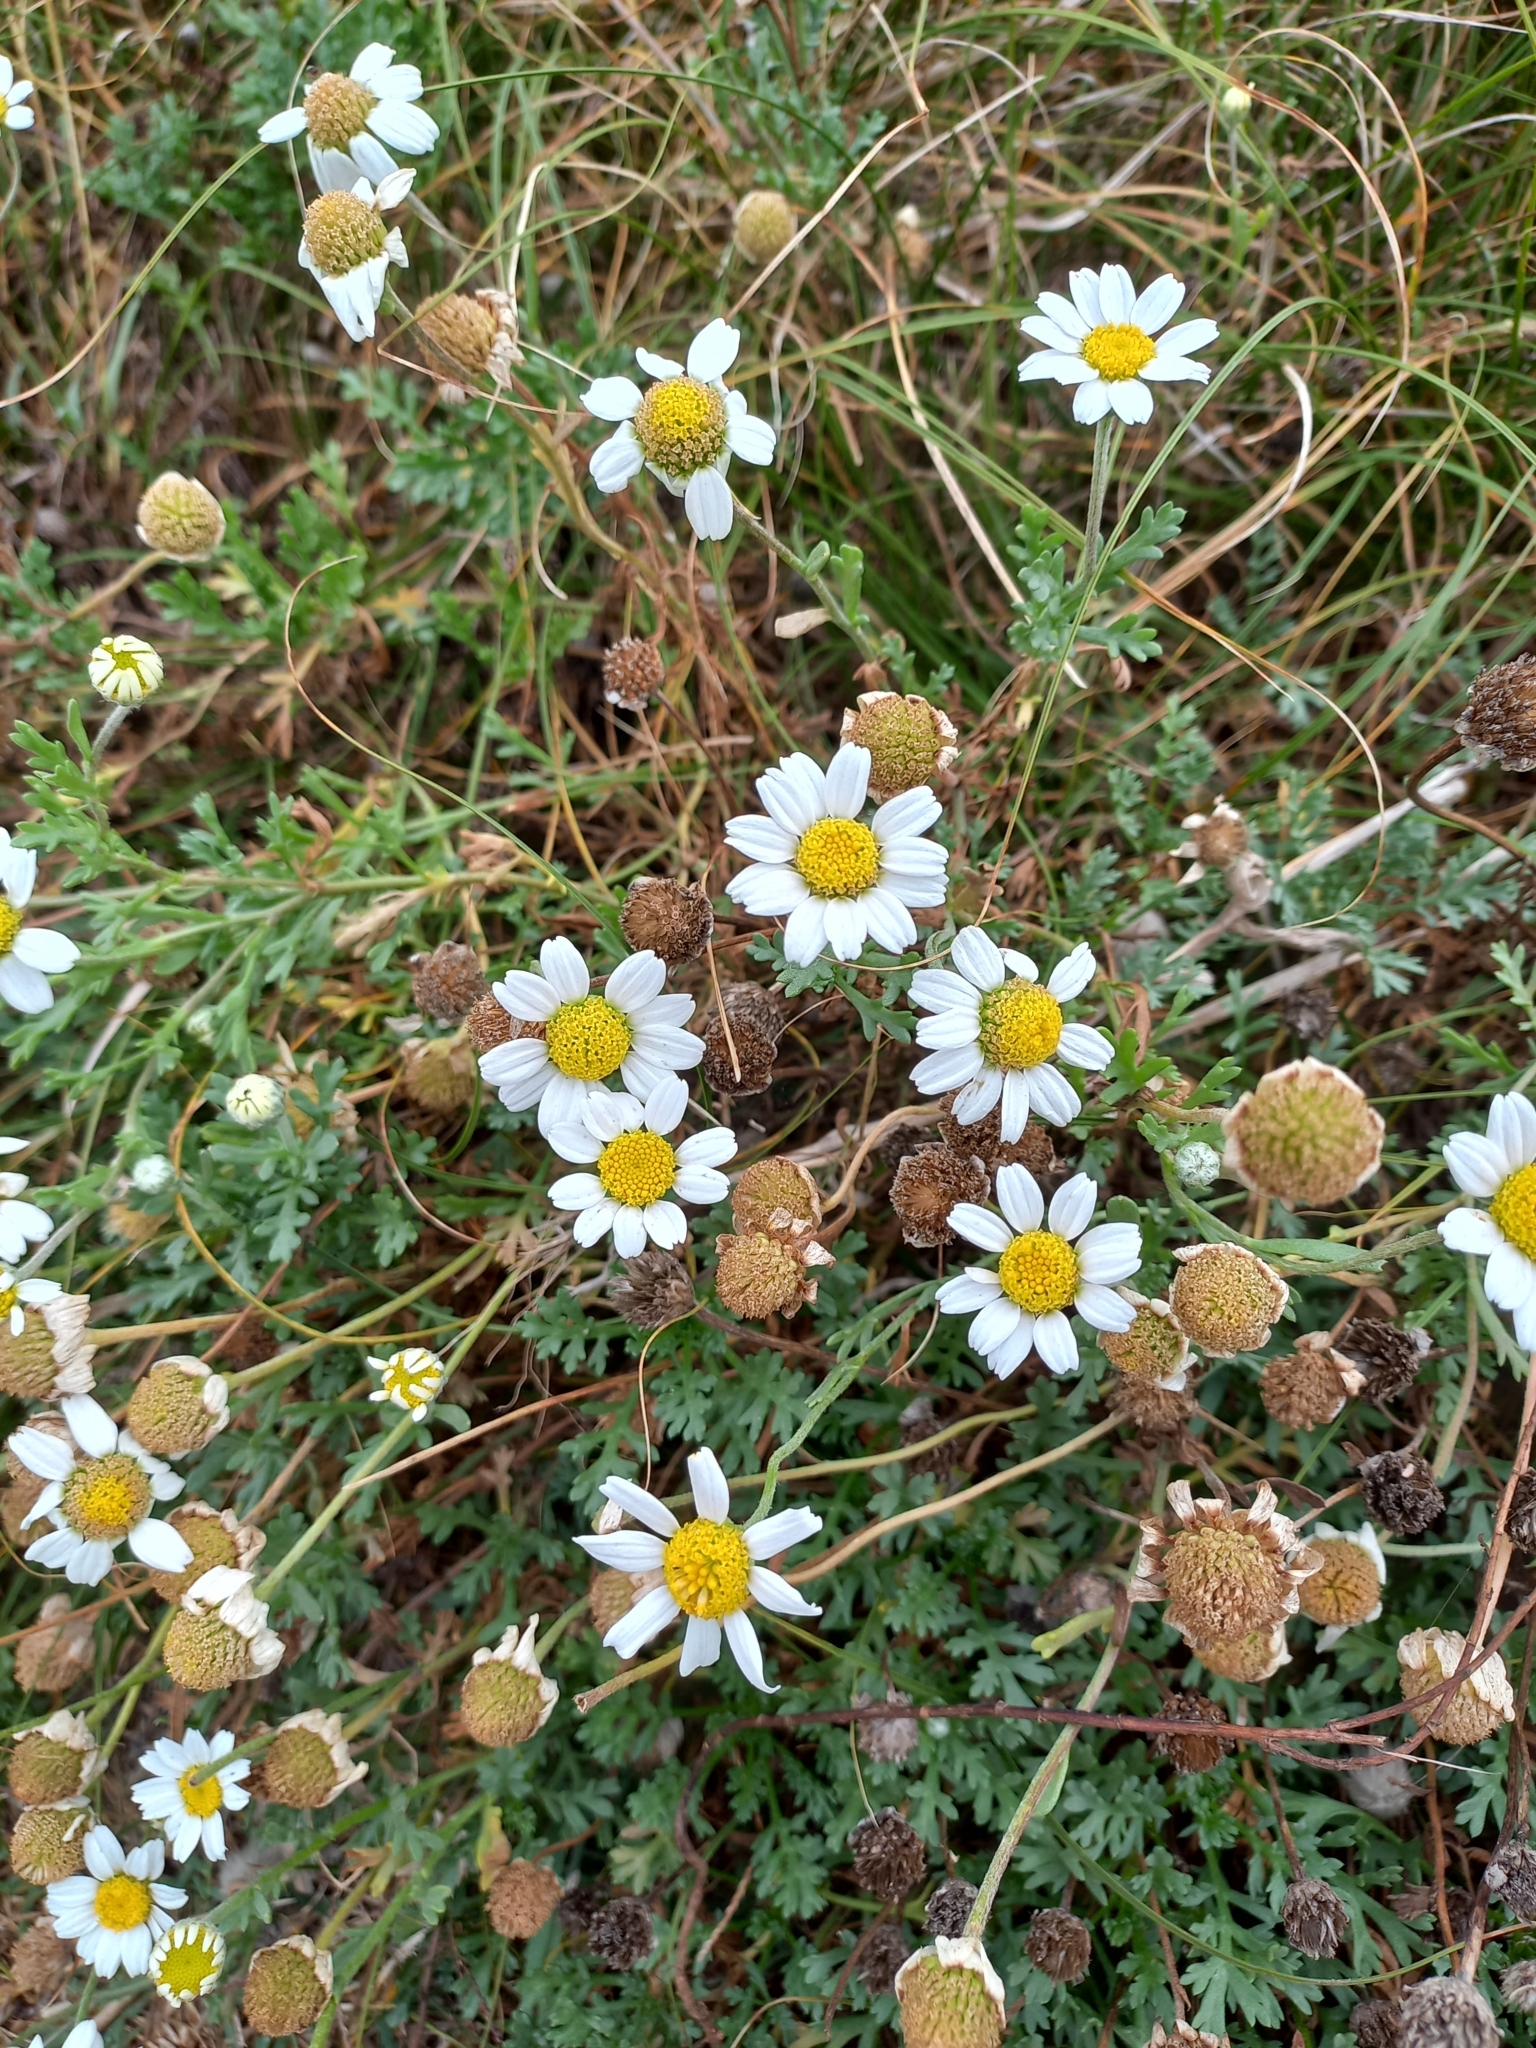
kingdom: Plantae
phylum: Tracheophyta
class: Magnoliopsida
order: Asterales
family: Asteraceae
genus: Anthemis
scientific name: Anthemis maritima
